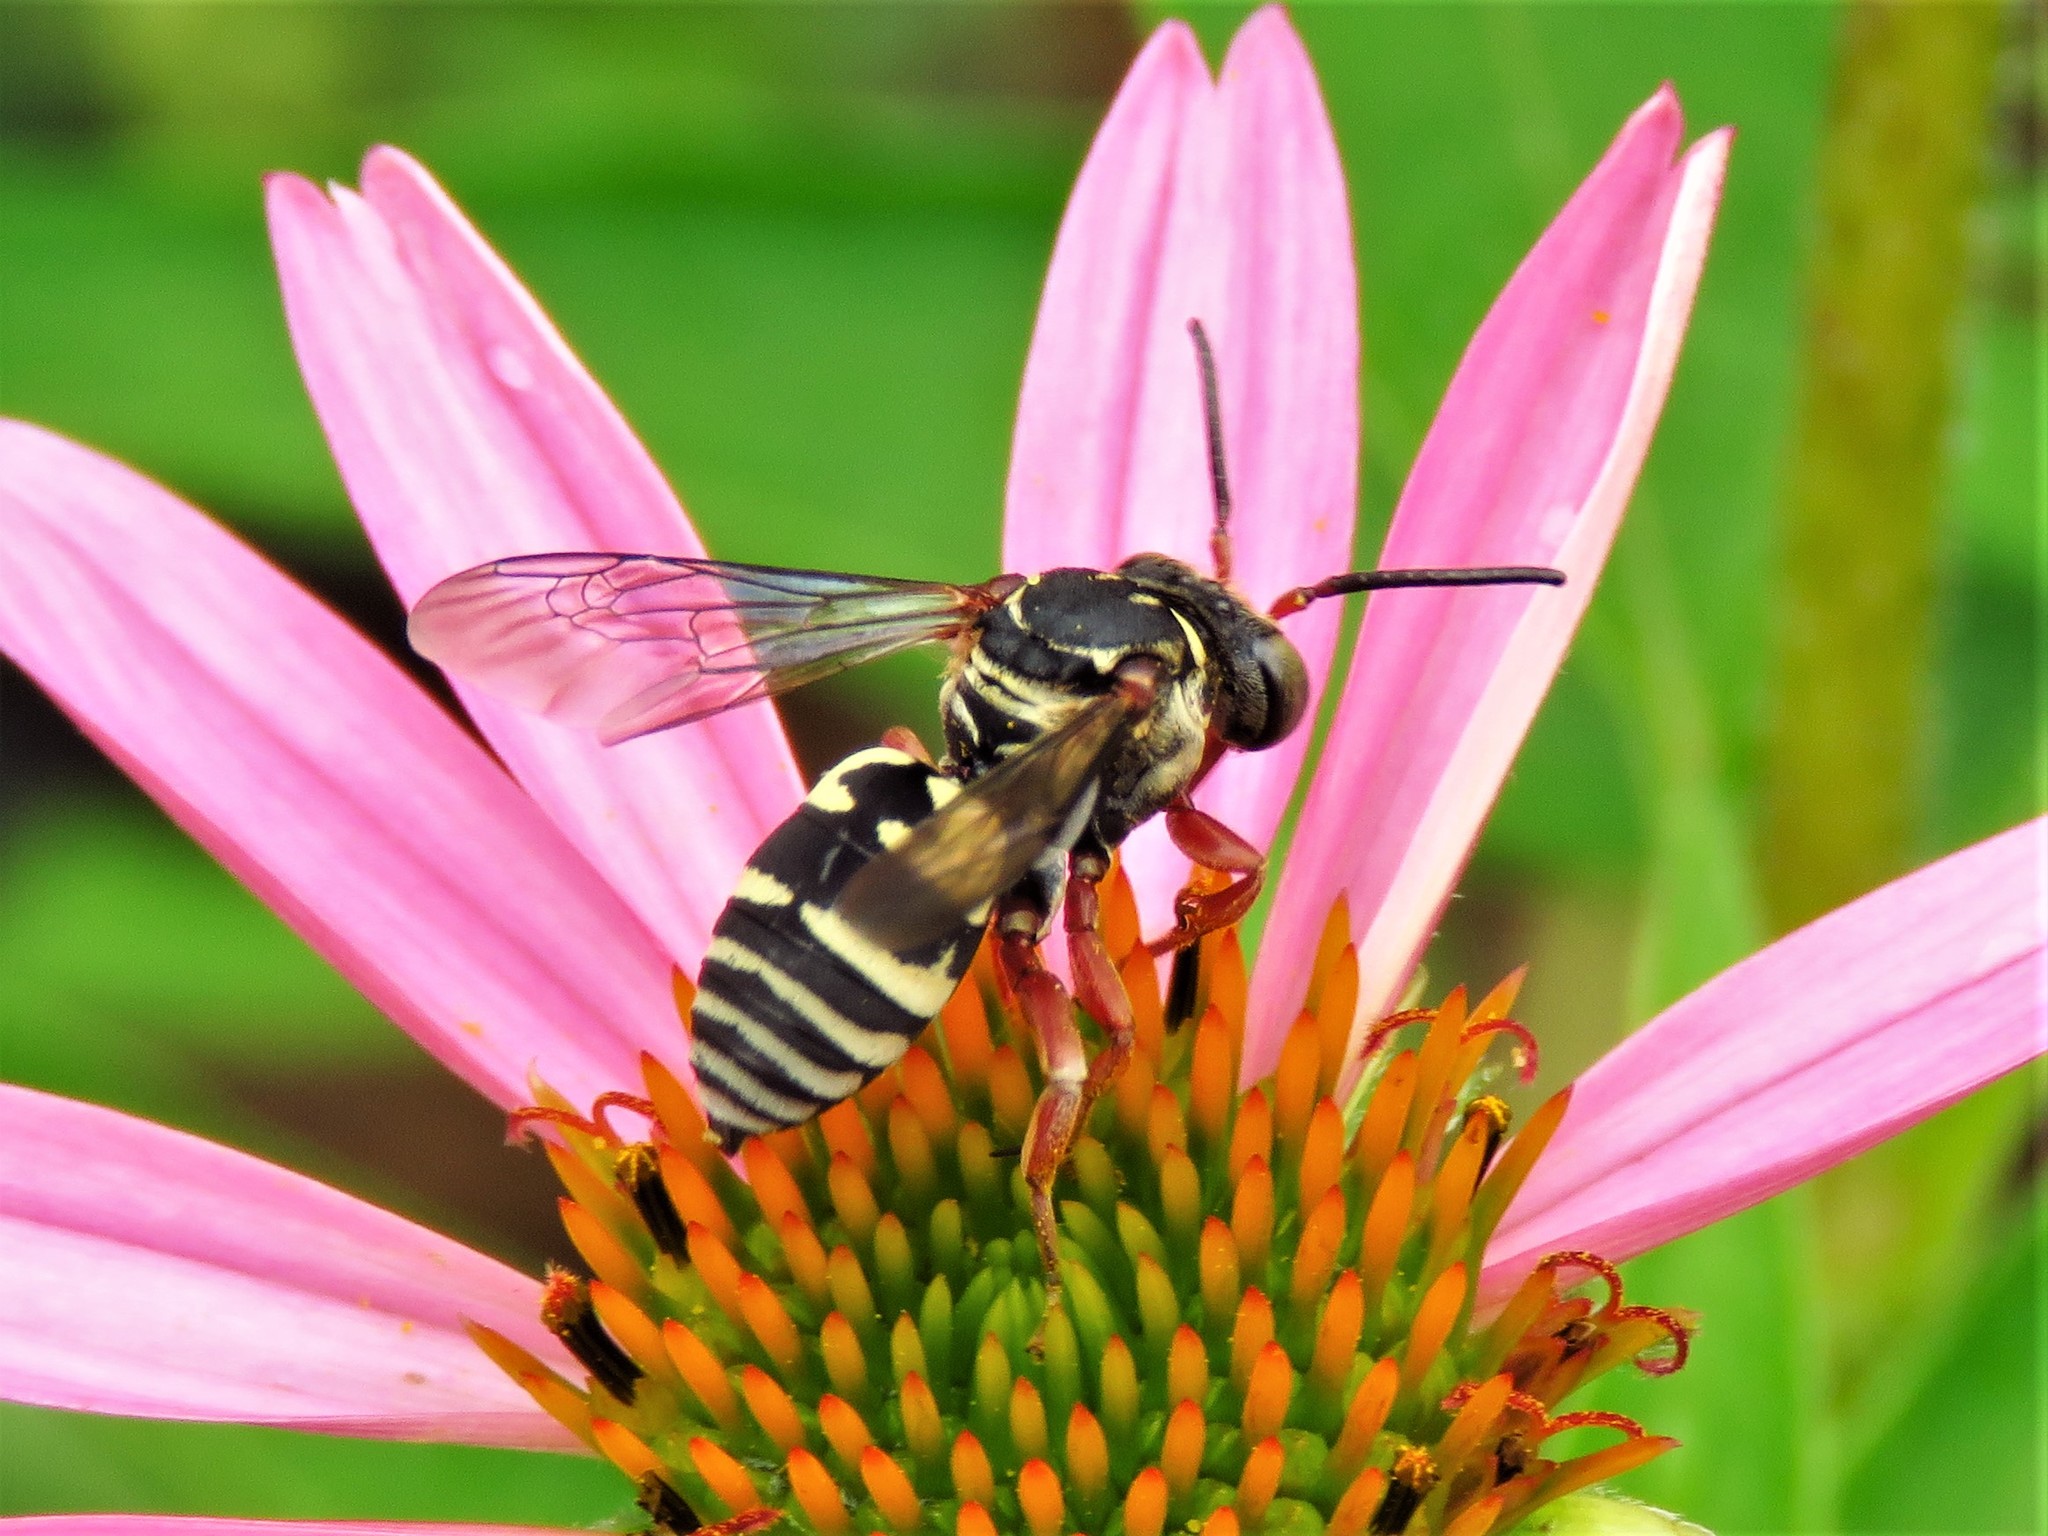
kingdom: Animalia
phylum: Arthropoda
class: Insecta
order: Hymenoptera
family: Apidae
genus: Triepeolus
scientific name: Triepeolus lunatus
